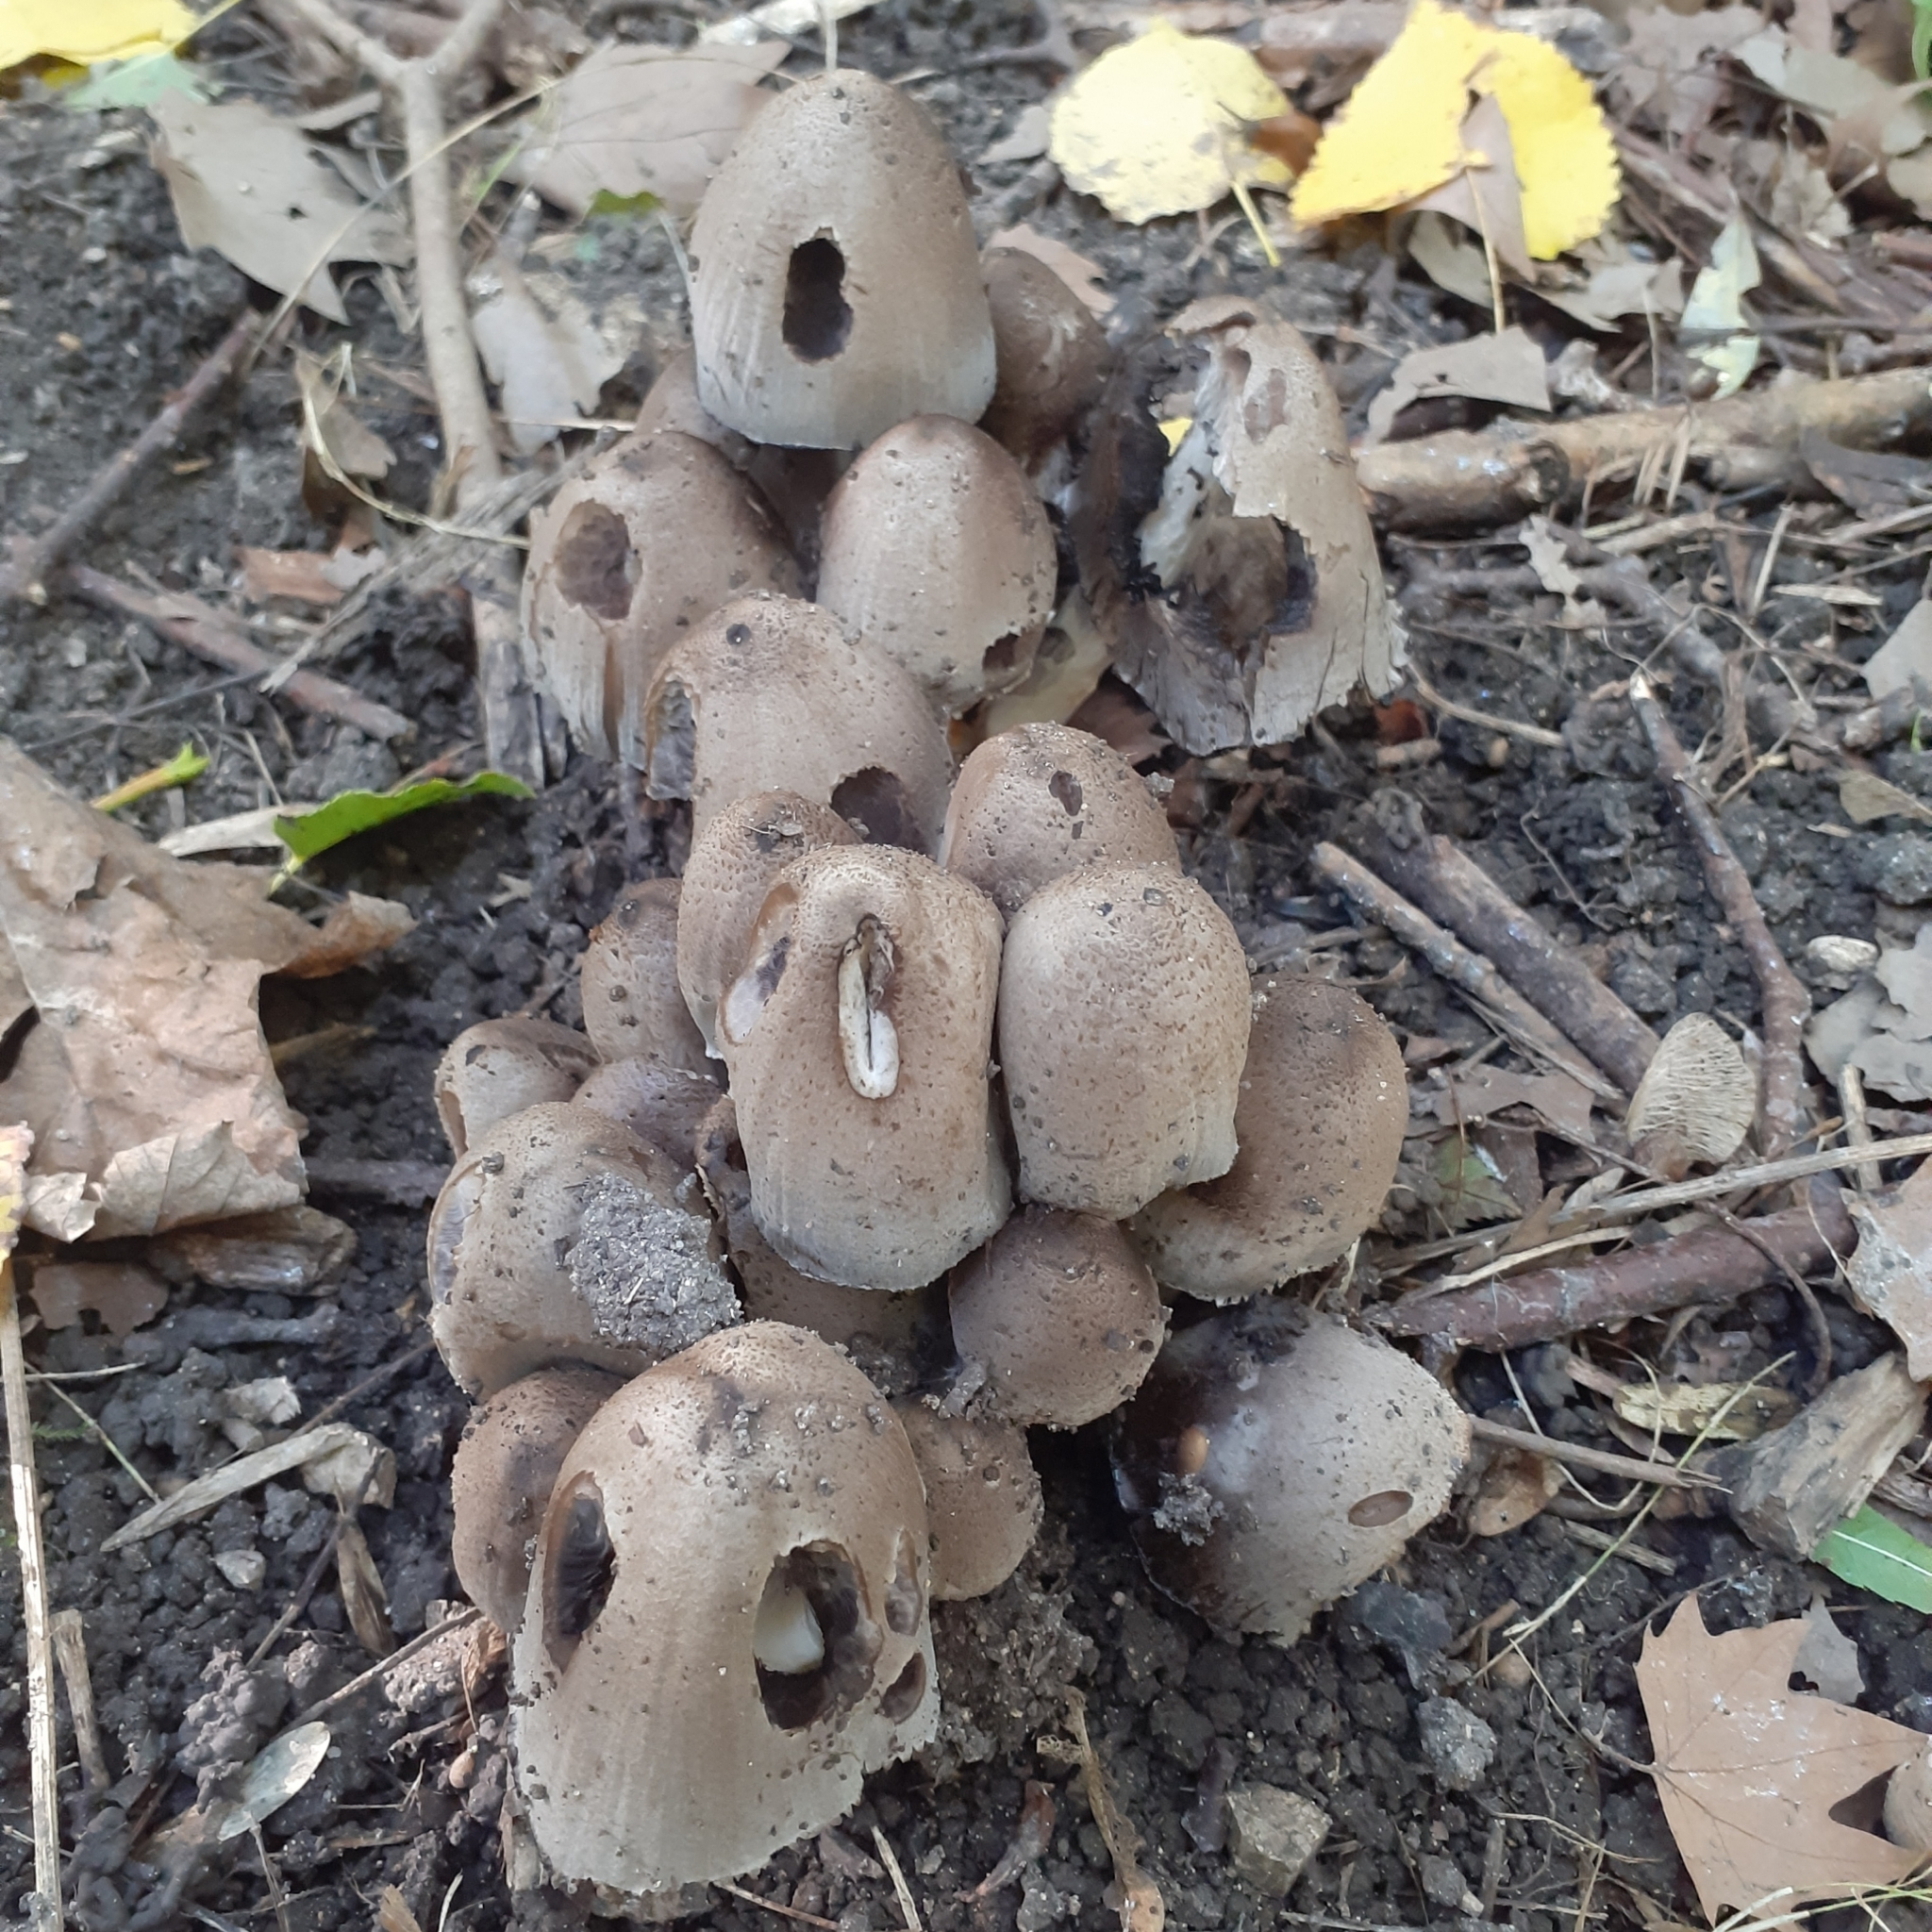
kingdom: Fungi
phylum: Basidiomycota
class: Agaricomycetes
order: Agaricales
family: Psathyrellaceae
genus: Coprinopsis
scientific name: Coprinopsis romagnesiana
